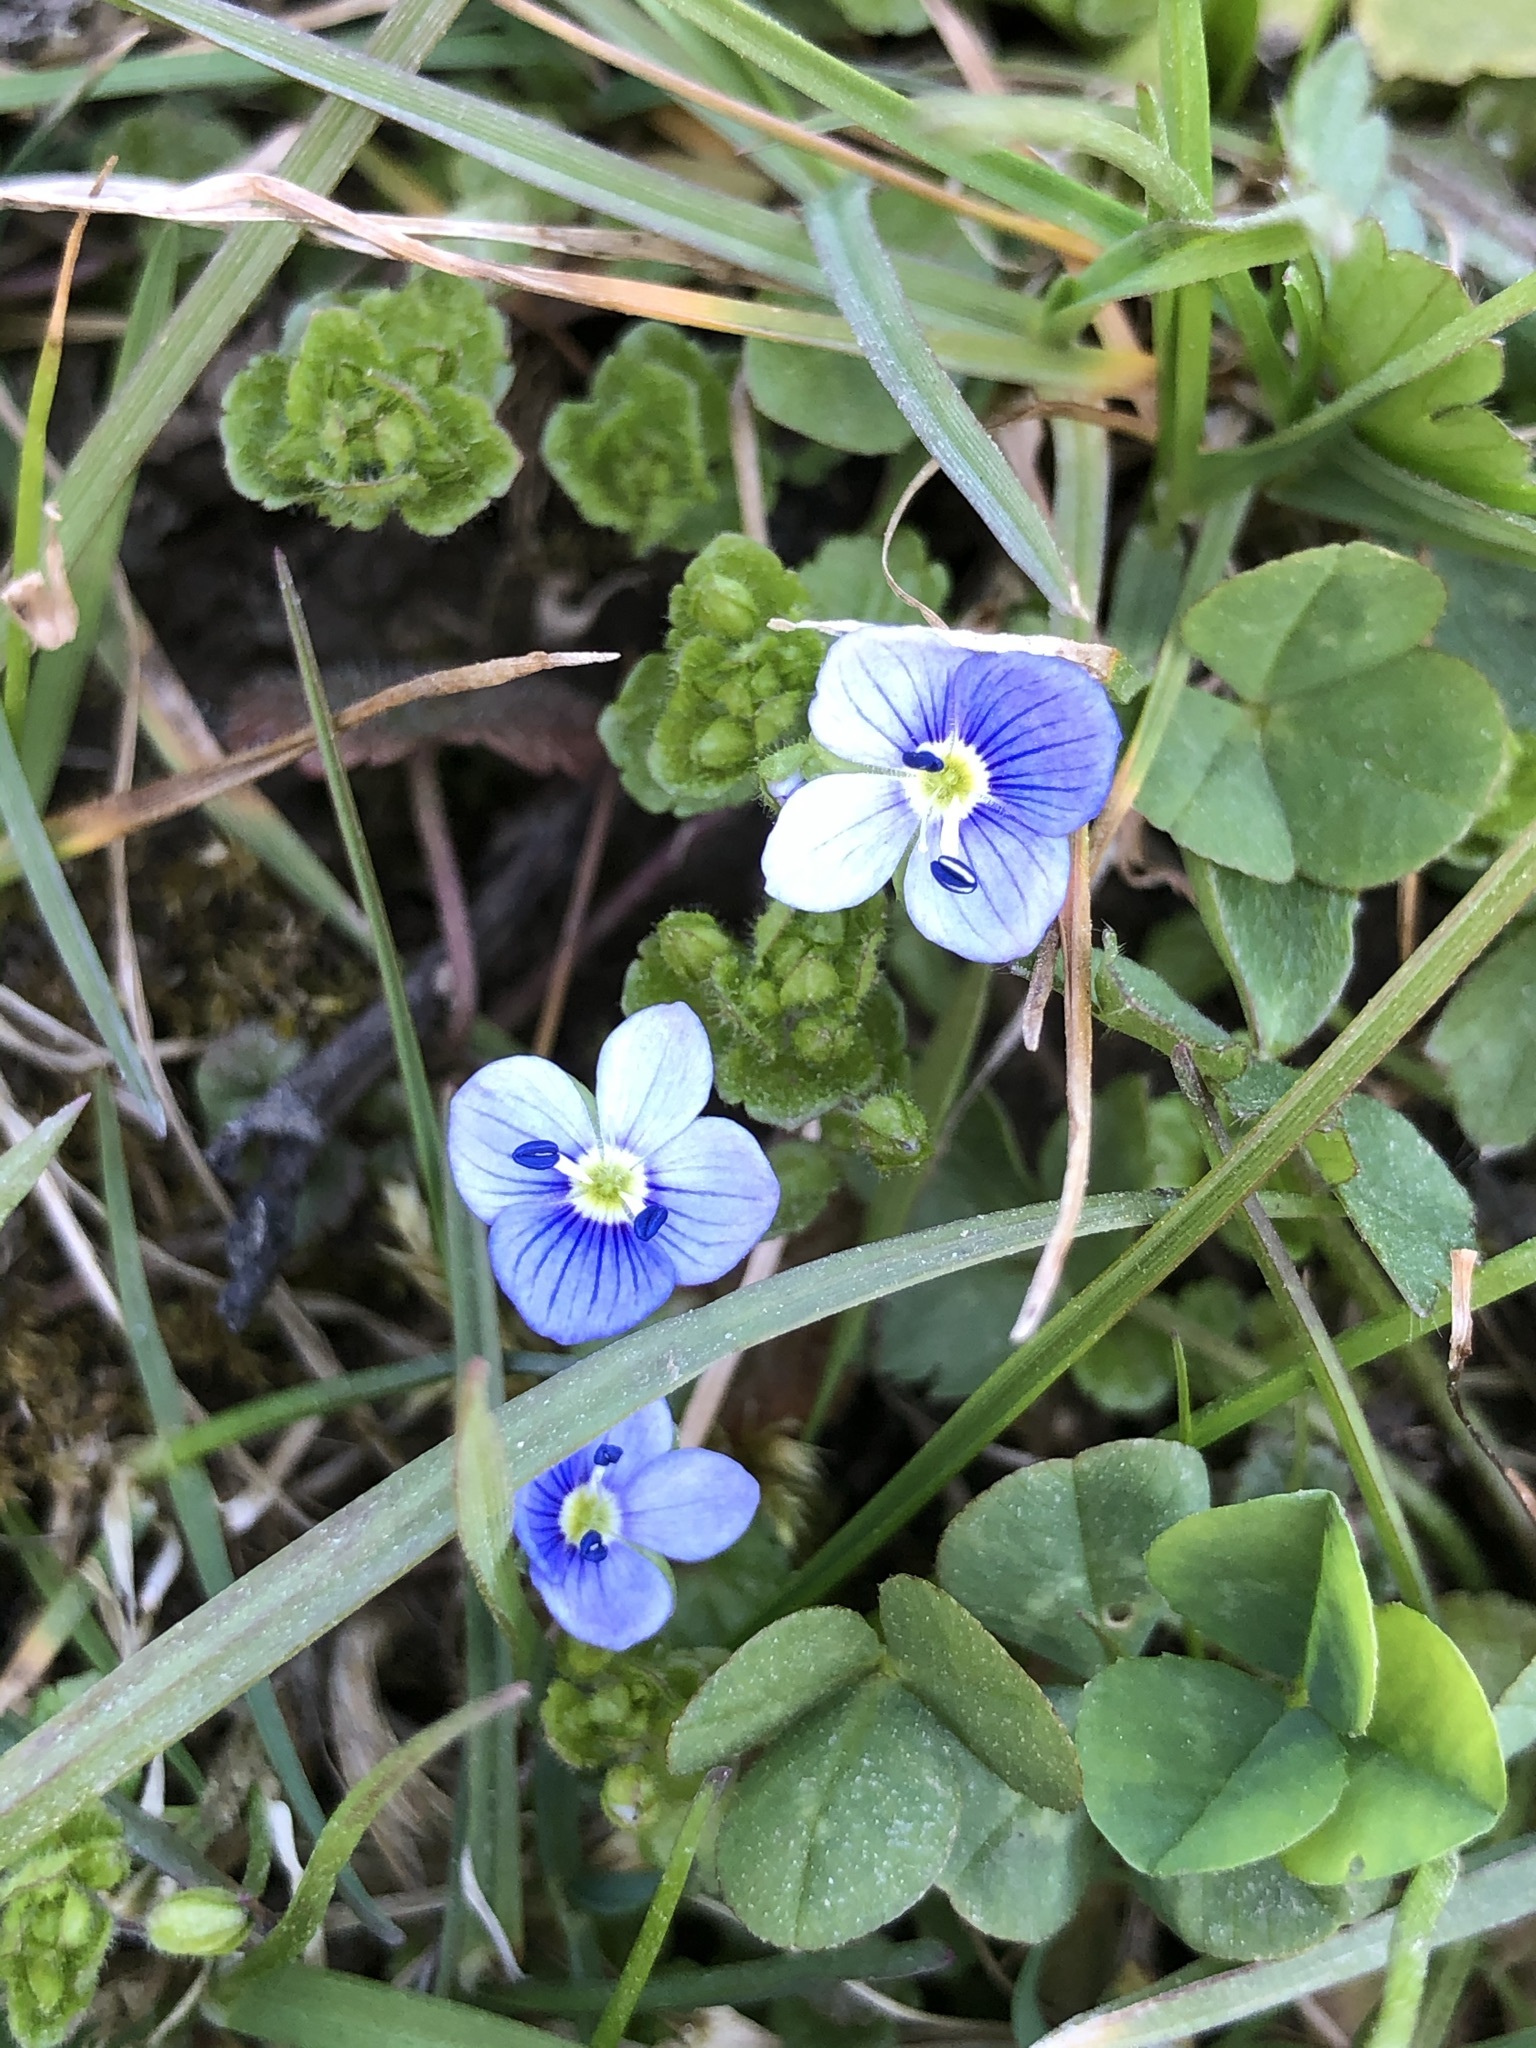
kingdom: Plantae
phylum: Tracheophyta
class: Magnoliopsida
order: Lamiales
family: Plantaginaceae
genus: Veronica
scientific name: Veronica filiformis
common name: Slender speedwell
